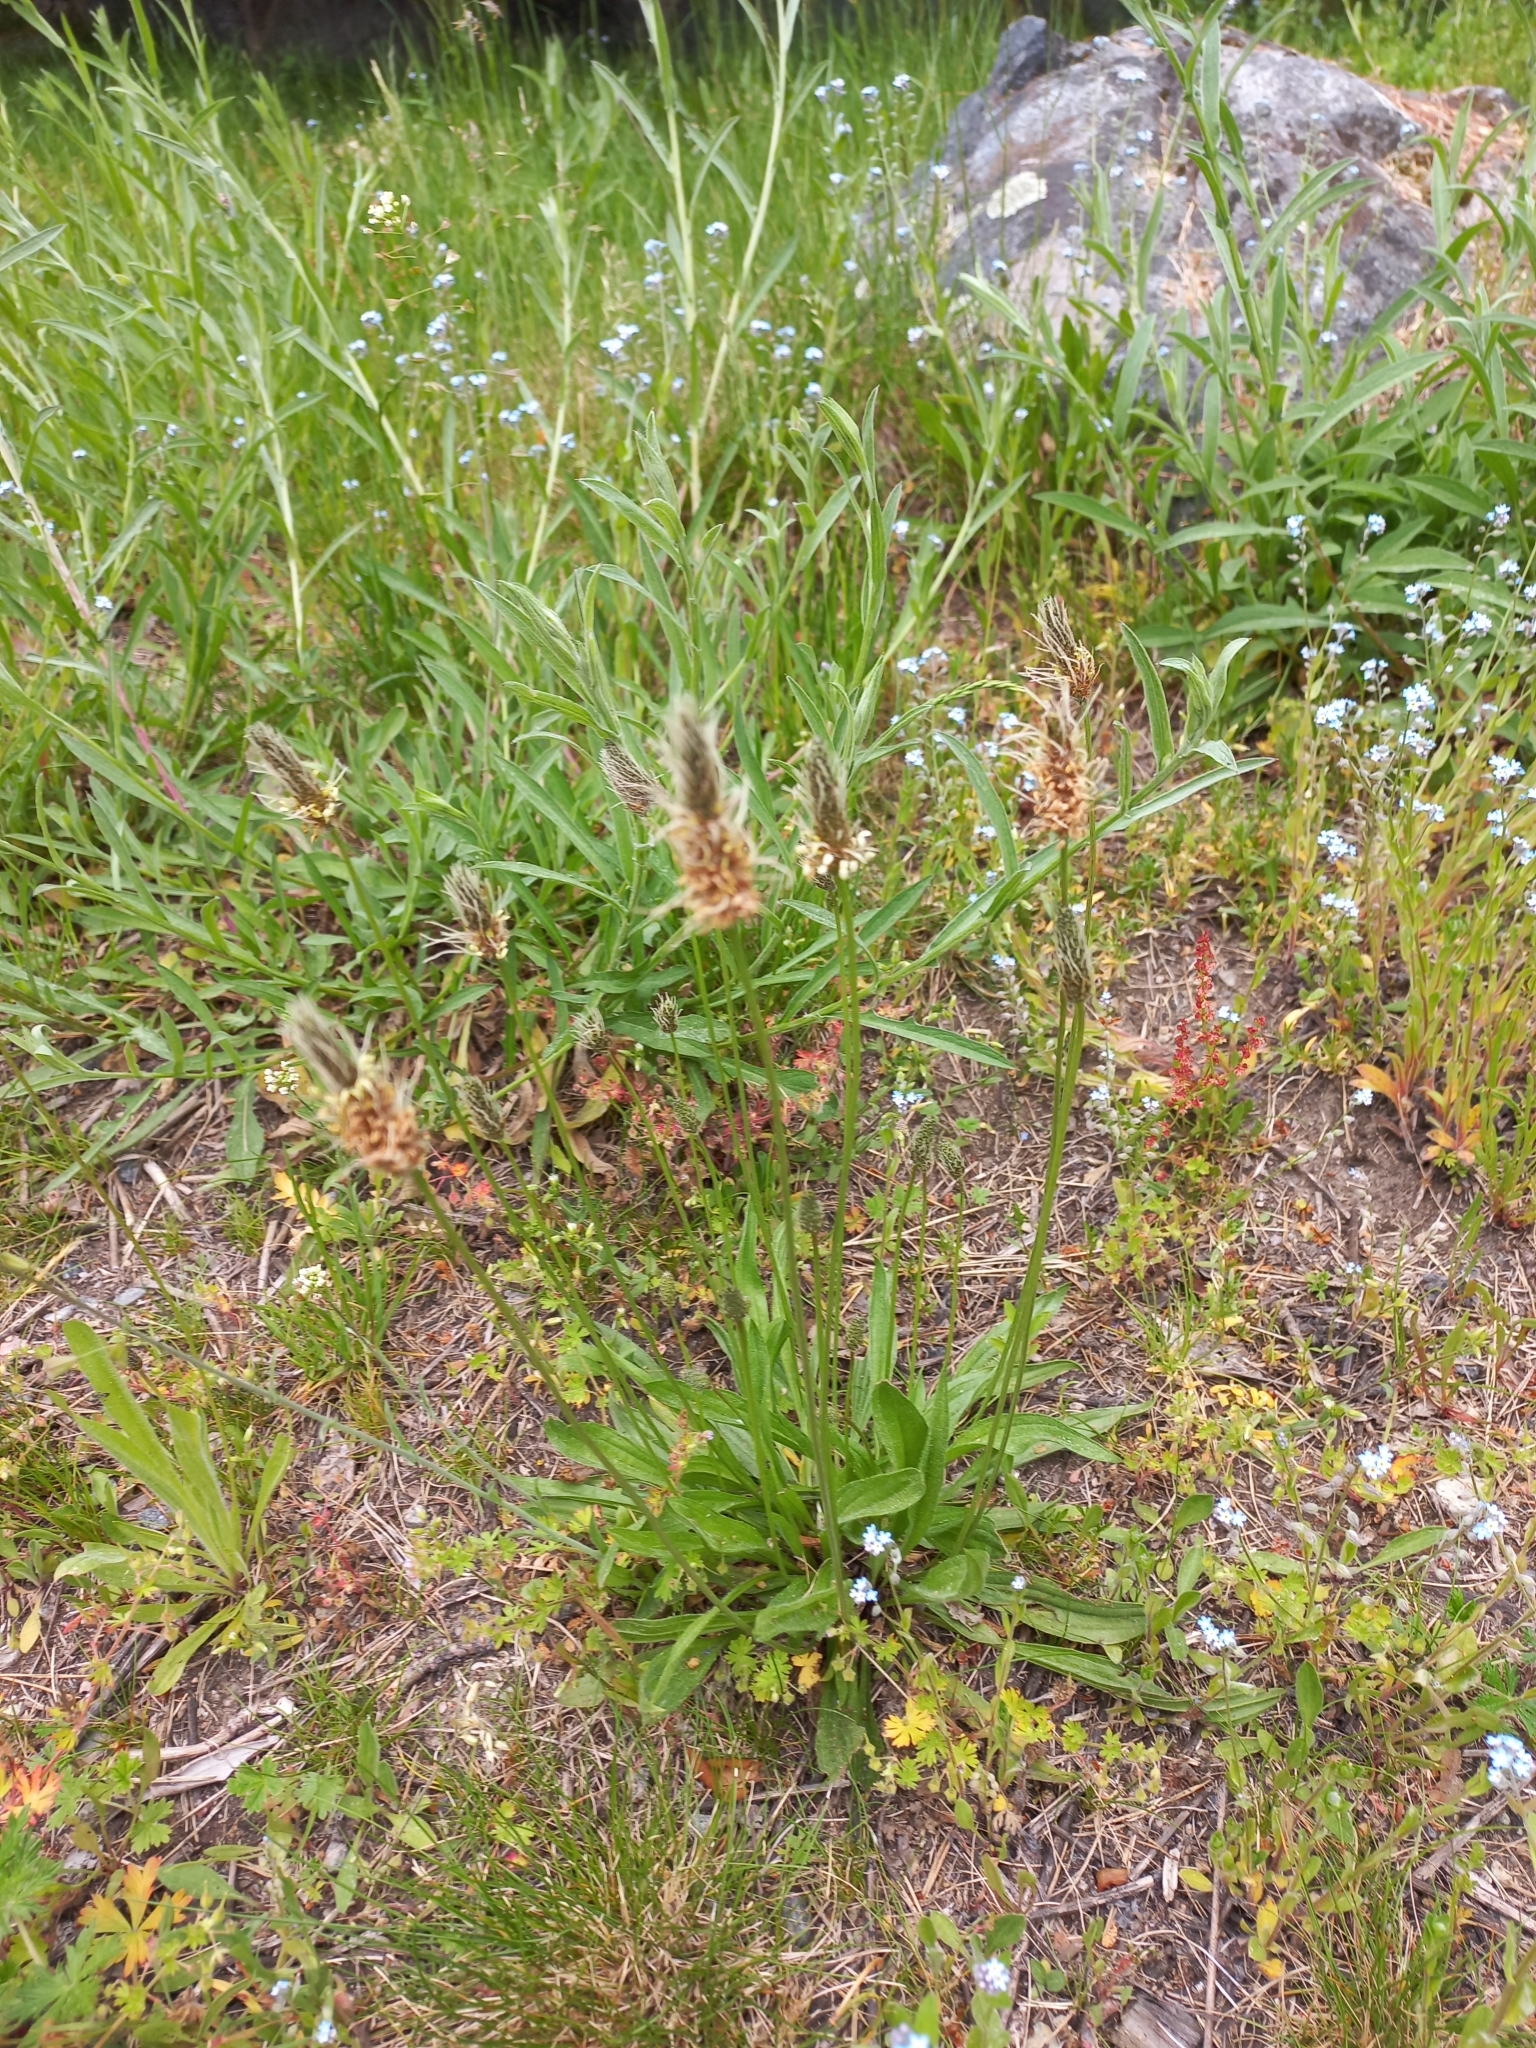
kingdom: Plantae
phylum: Tracheophyta
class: Magnoliopsida
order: Lamiales
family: Plantaginaceae
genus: Plantago
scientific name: Plantago lanceolata
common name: Ribwort plantain
